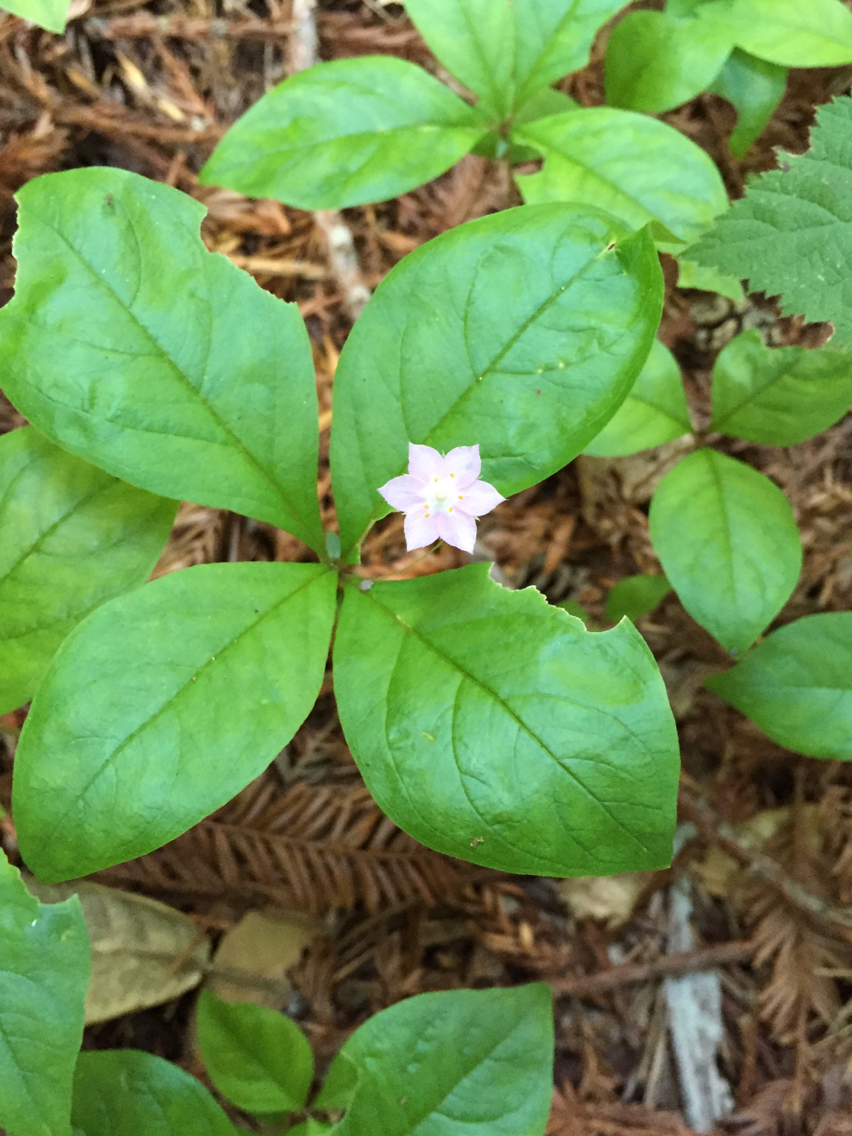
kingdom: Plantae
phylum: Tracheophyta
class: Magnoliopsida
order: Ericales
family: Primulaceae
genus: Lysimachia
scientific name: Lysimachia latifolia
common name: Pacific starflower
